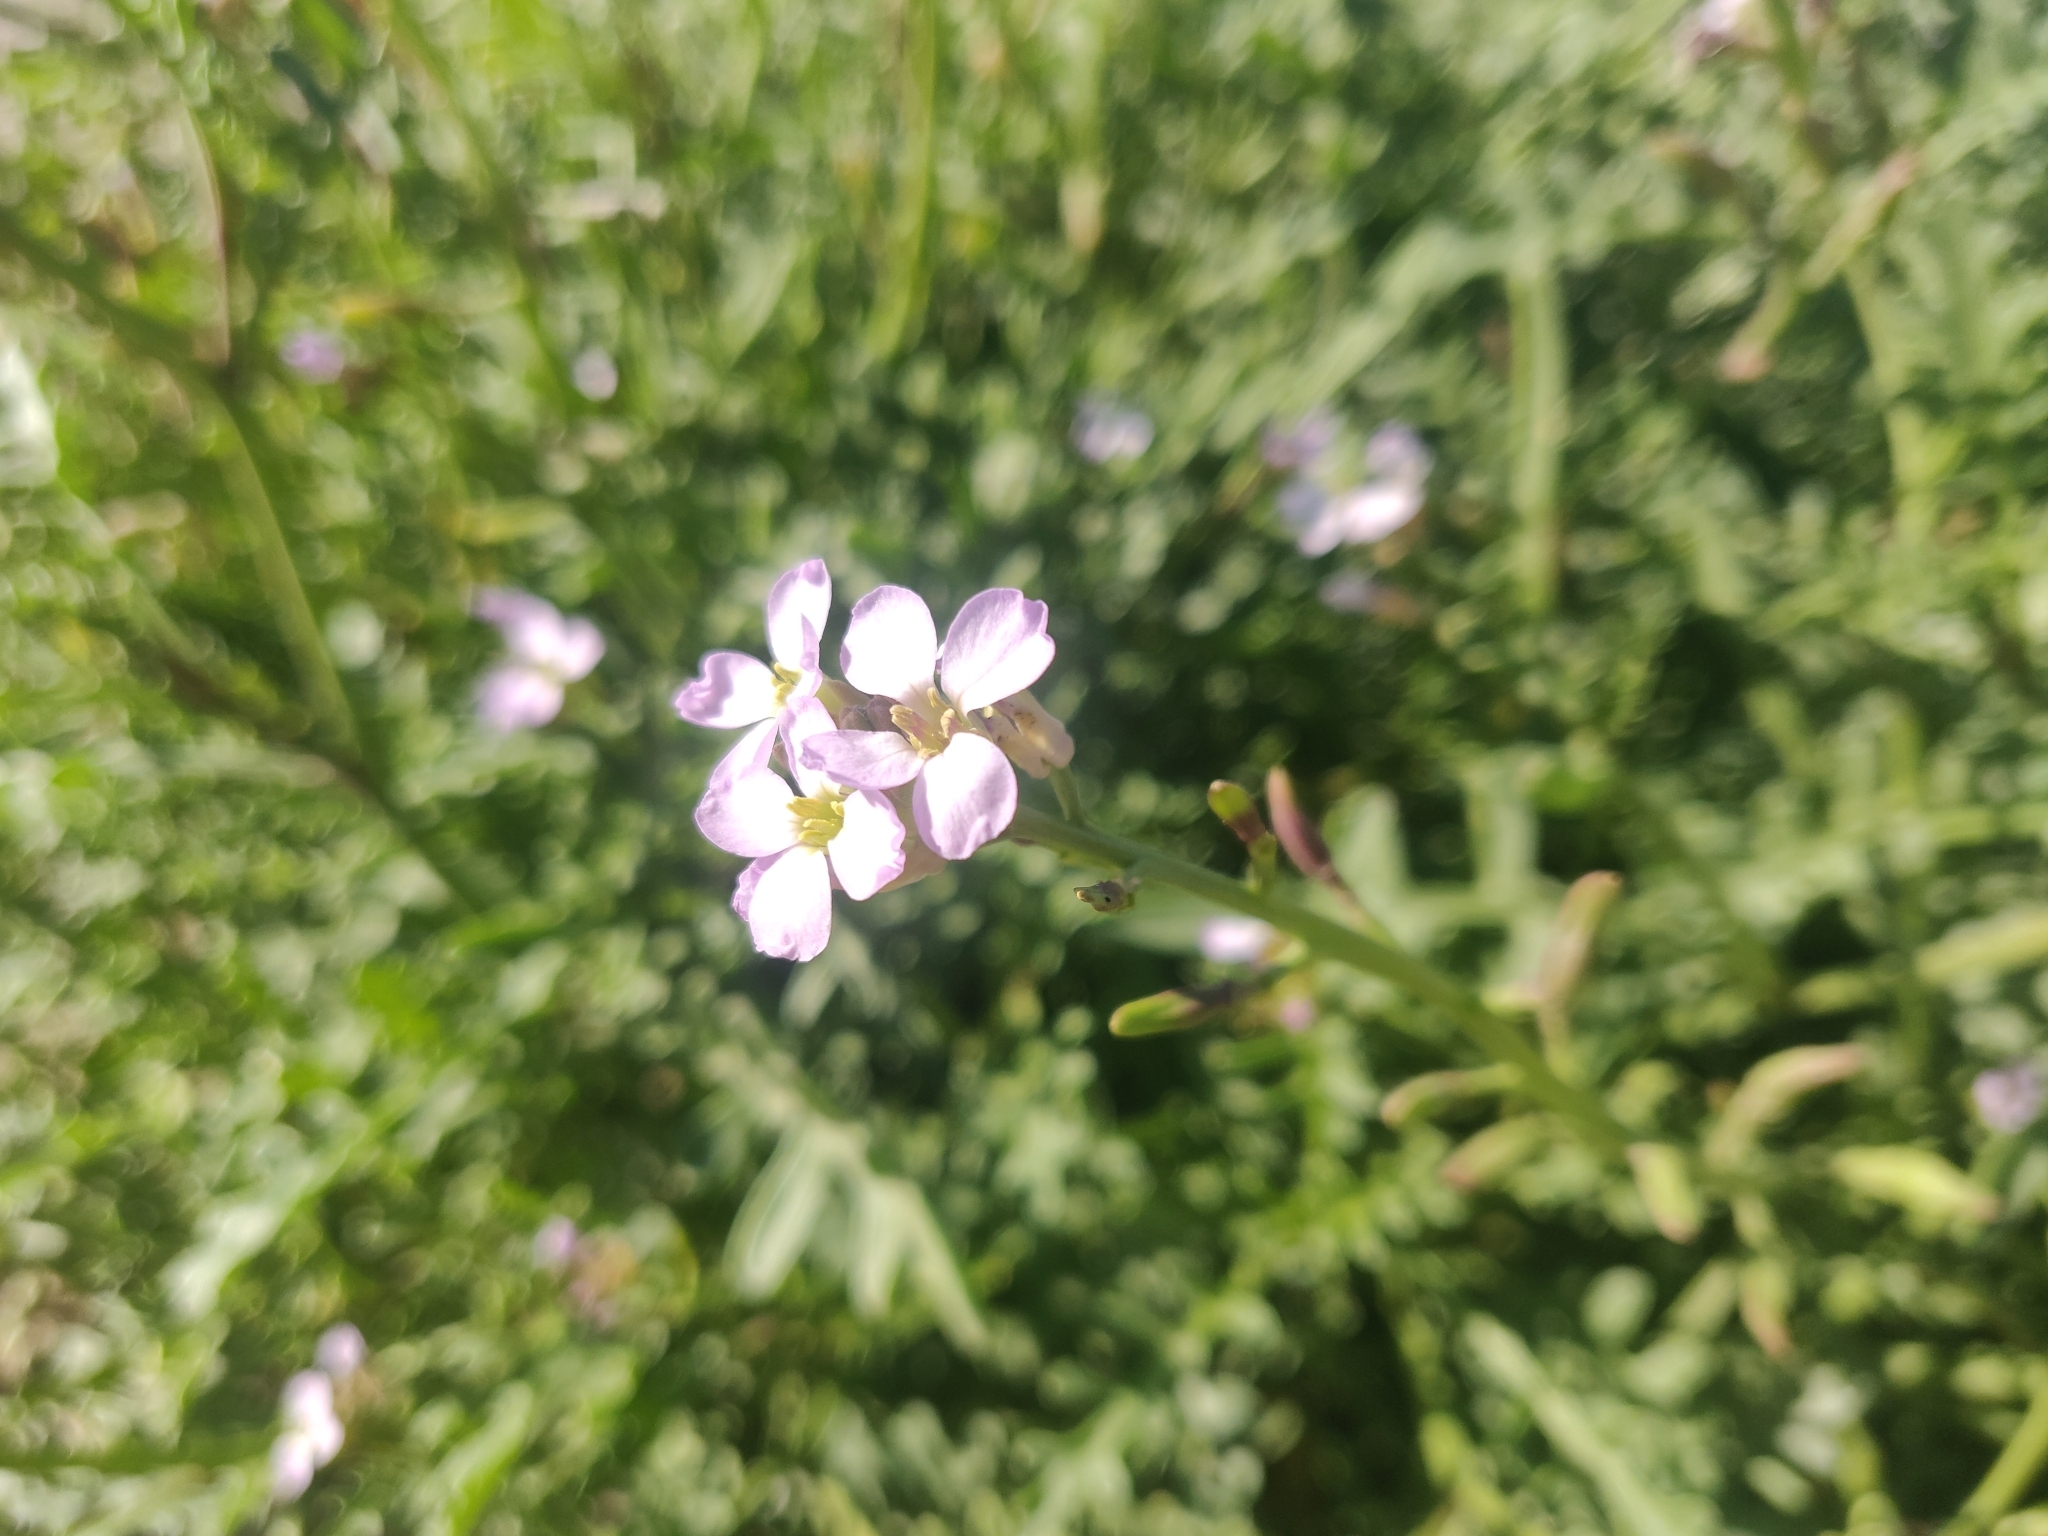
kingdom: Plantae
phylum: Tracheophyta
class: Magnoliopsida
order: Brassicales
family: Brassicaceae
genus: Cakile
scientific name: Cakile maritima
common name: Sea rocket
